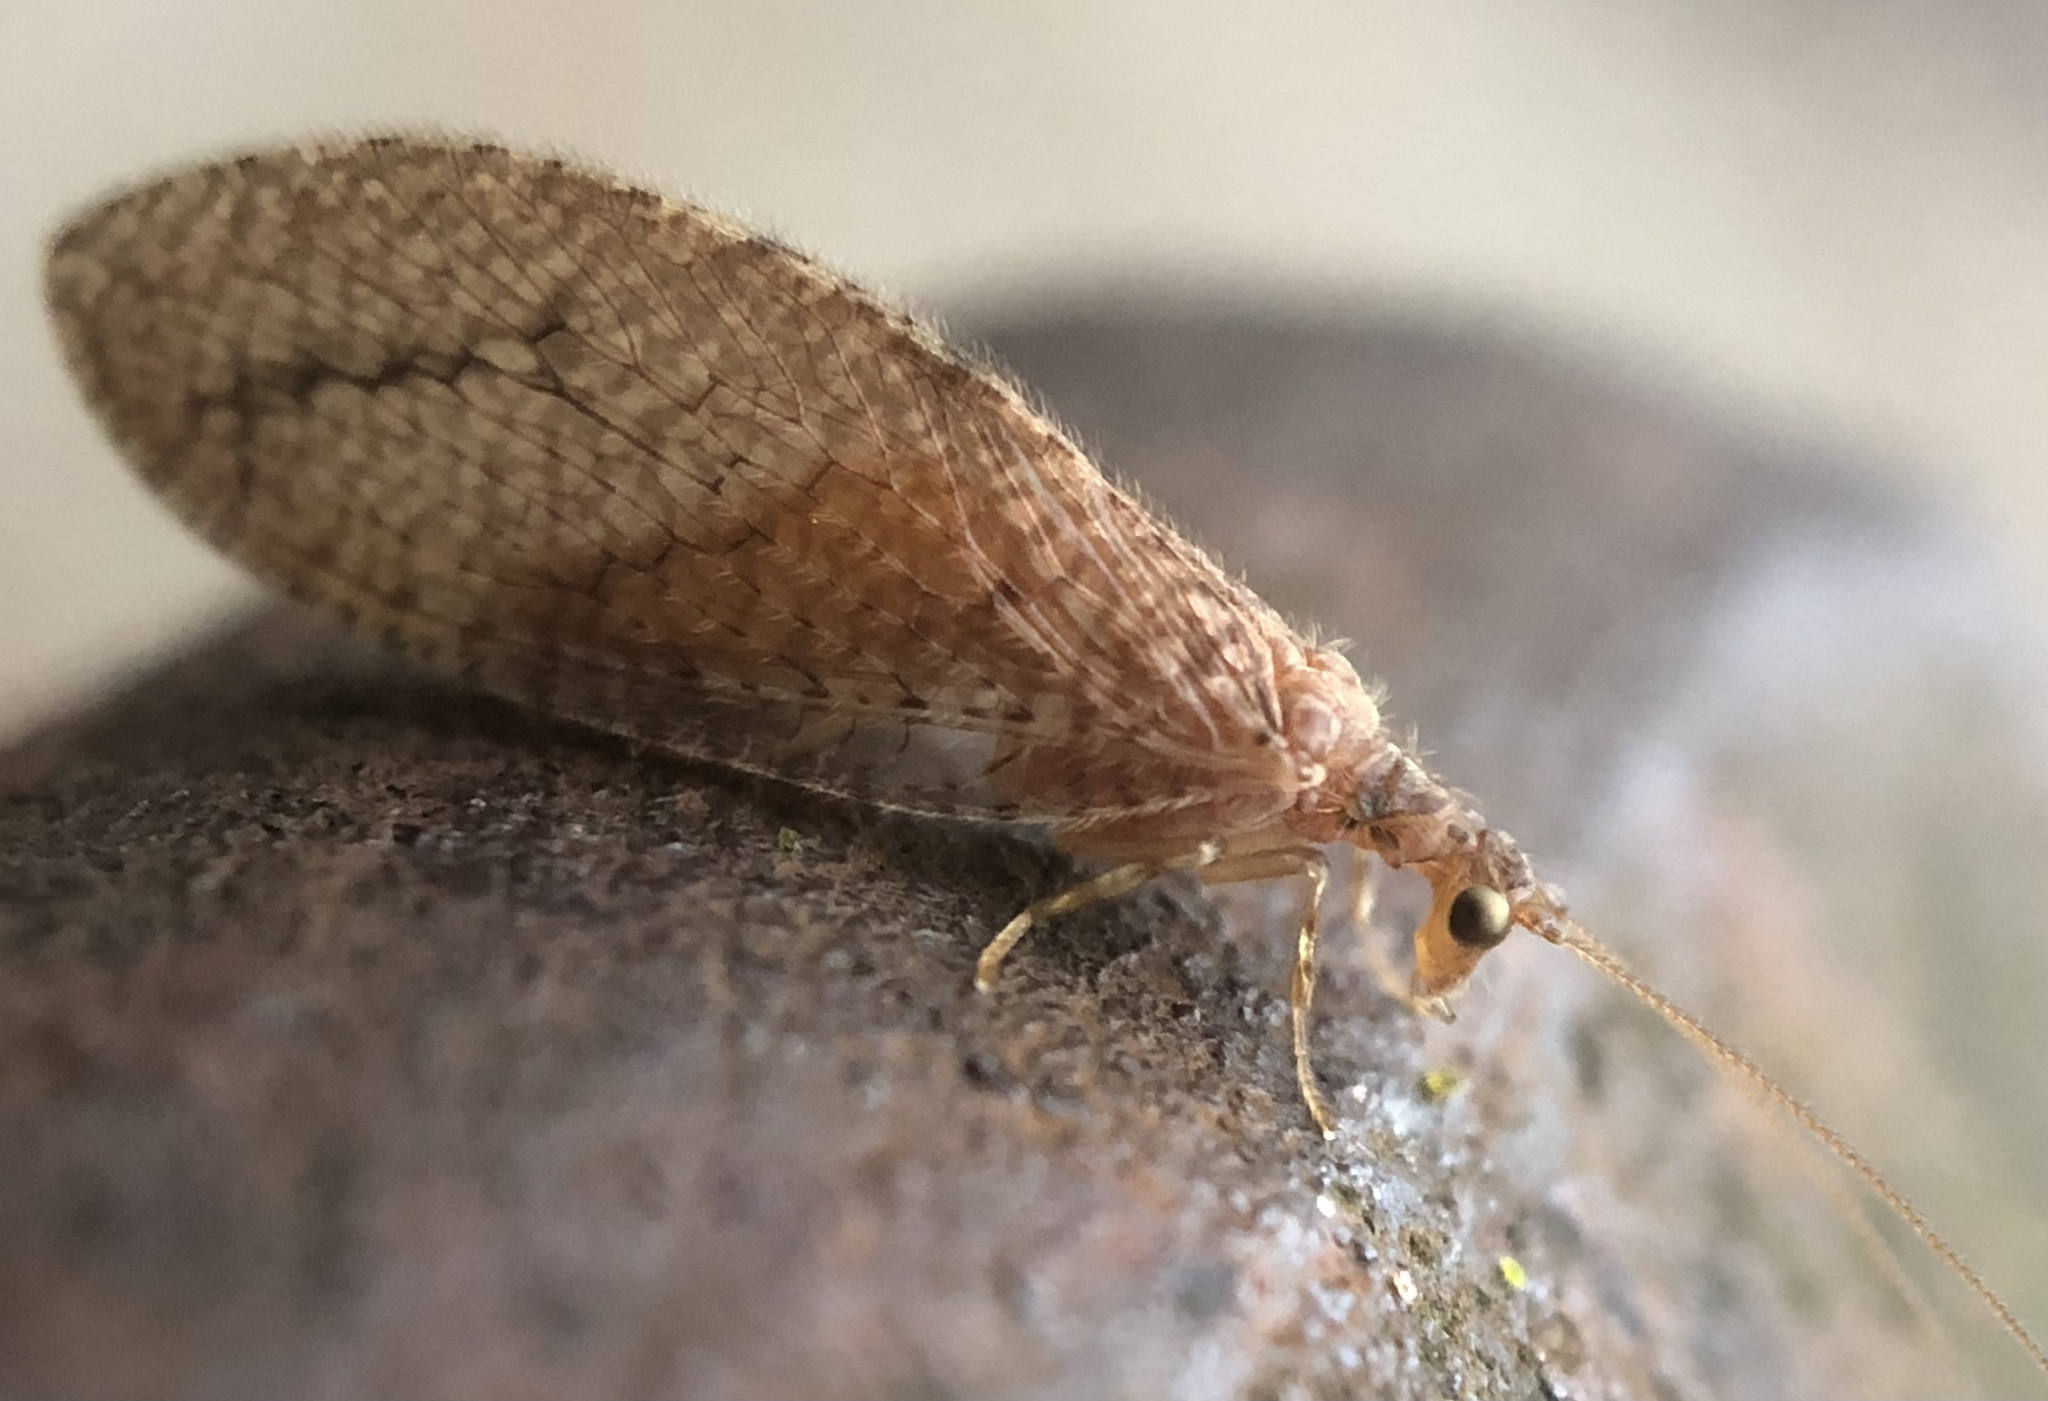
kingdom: Animalia
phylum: Arthropoda
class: Insecta
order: Neuroptera
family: Hemerobiidae
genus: Micromus
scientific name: Micromus posticus
